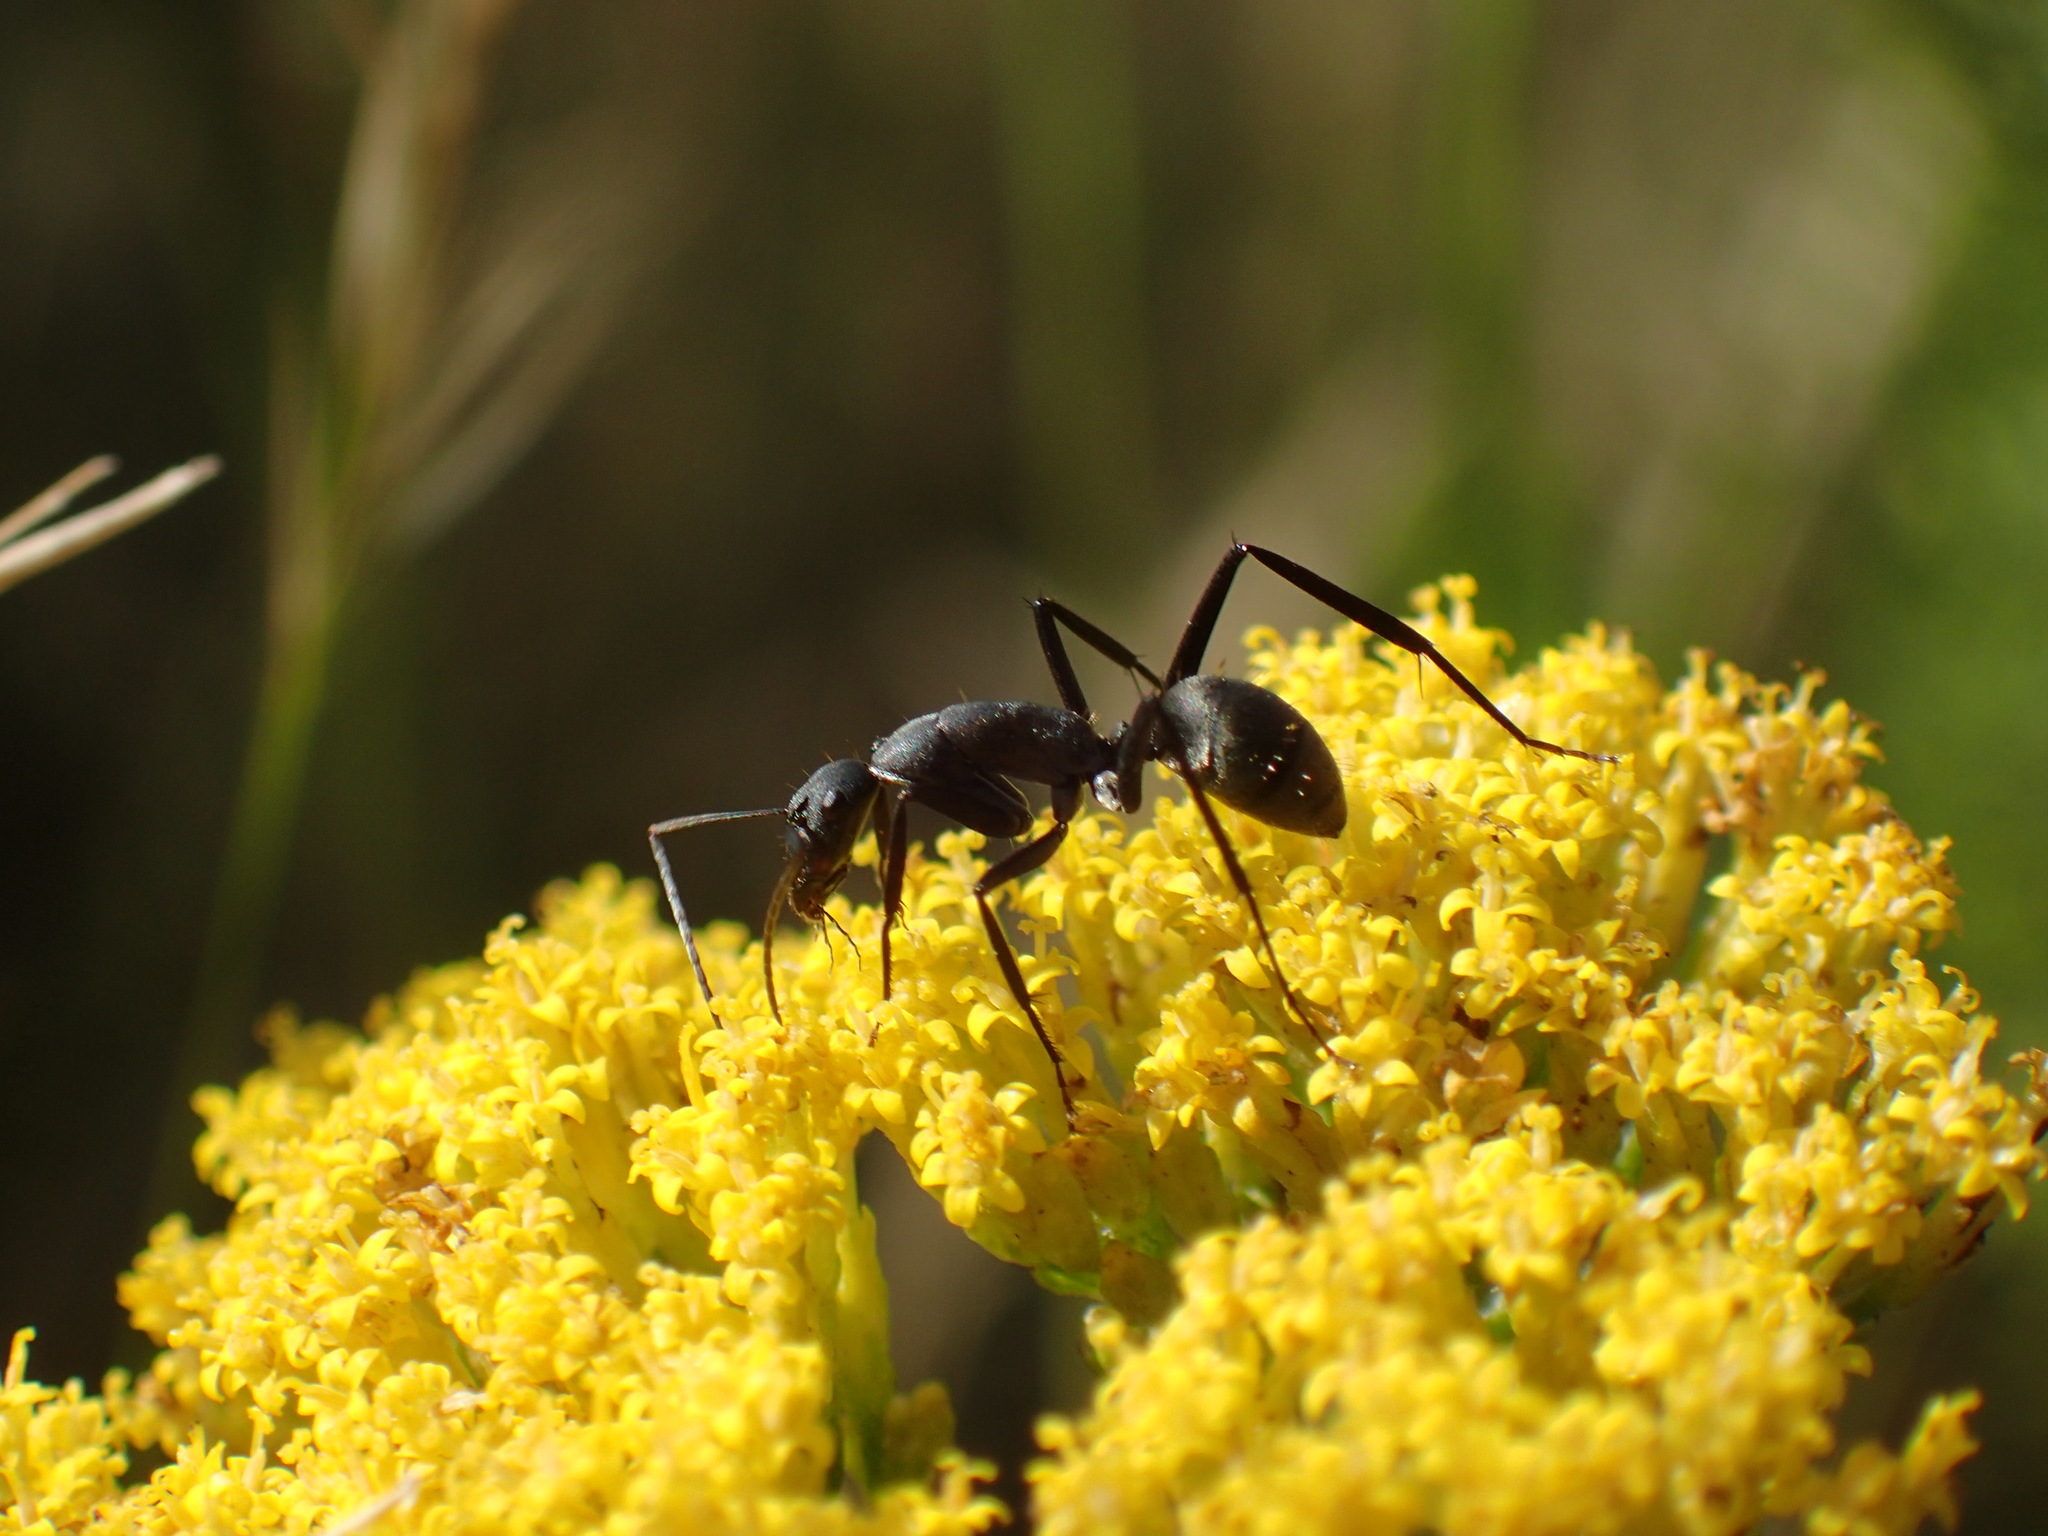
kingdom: Animalia
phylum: Arthropoda
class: Insecta
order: Hymenoptera
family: Formicidae
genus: Camponotus
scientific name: Camponotus petersii
